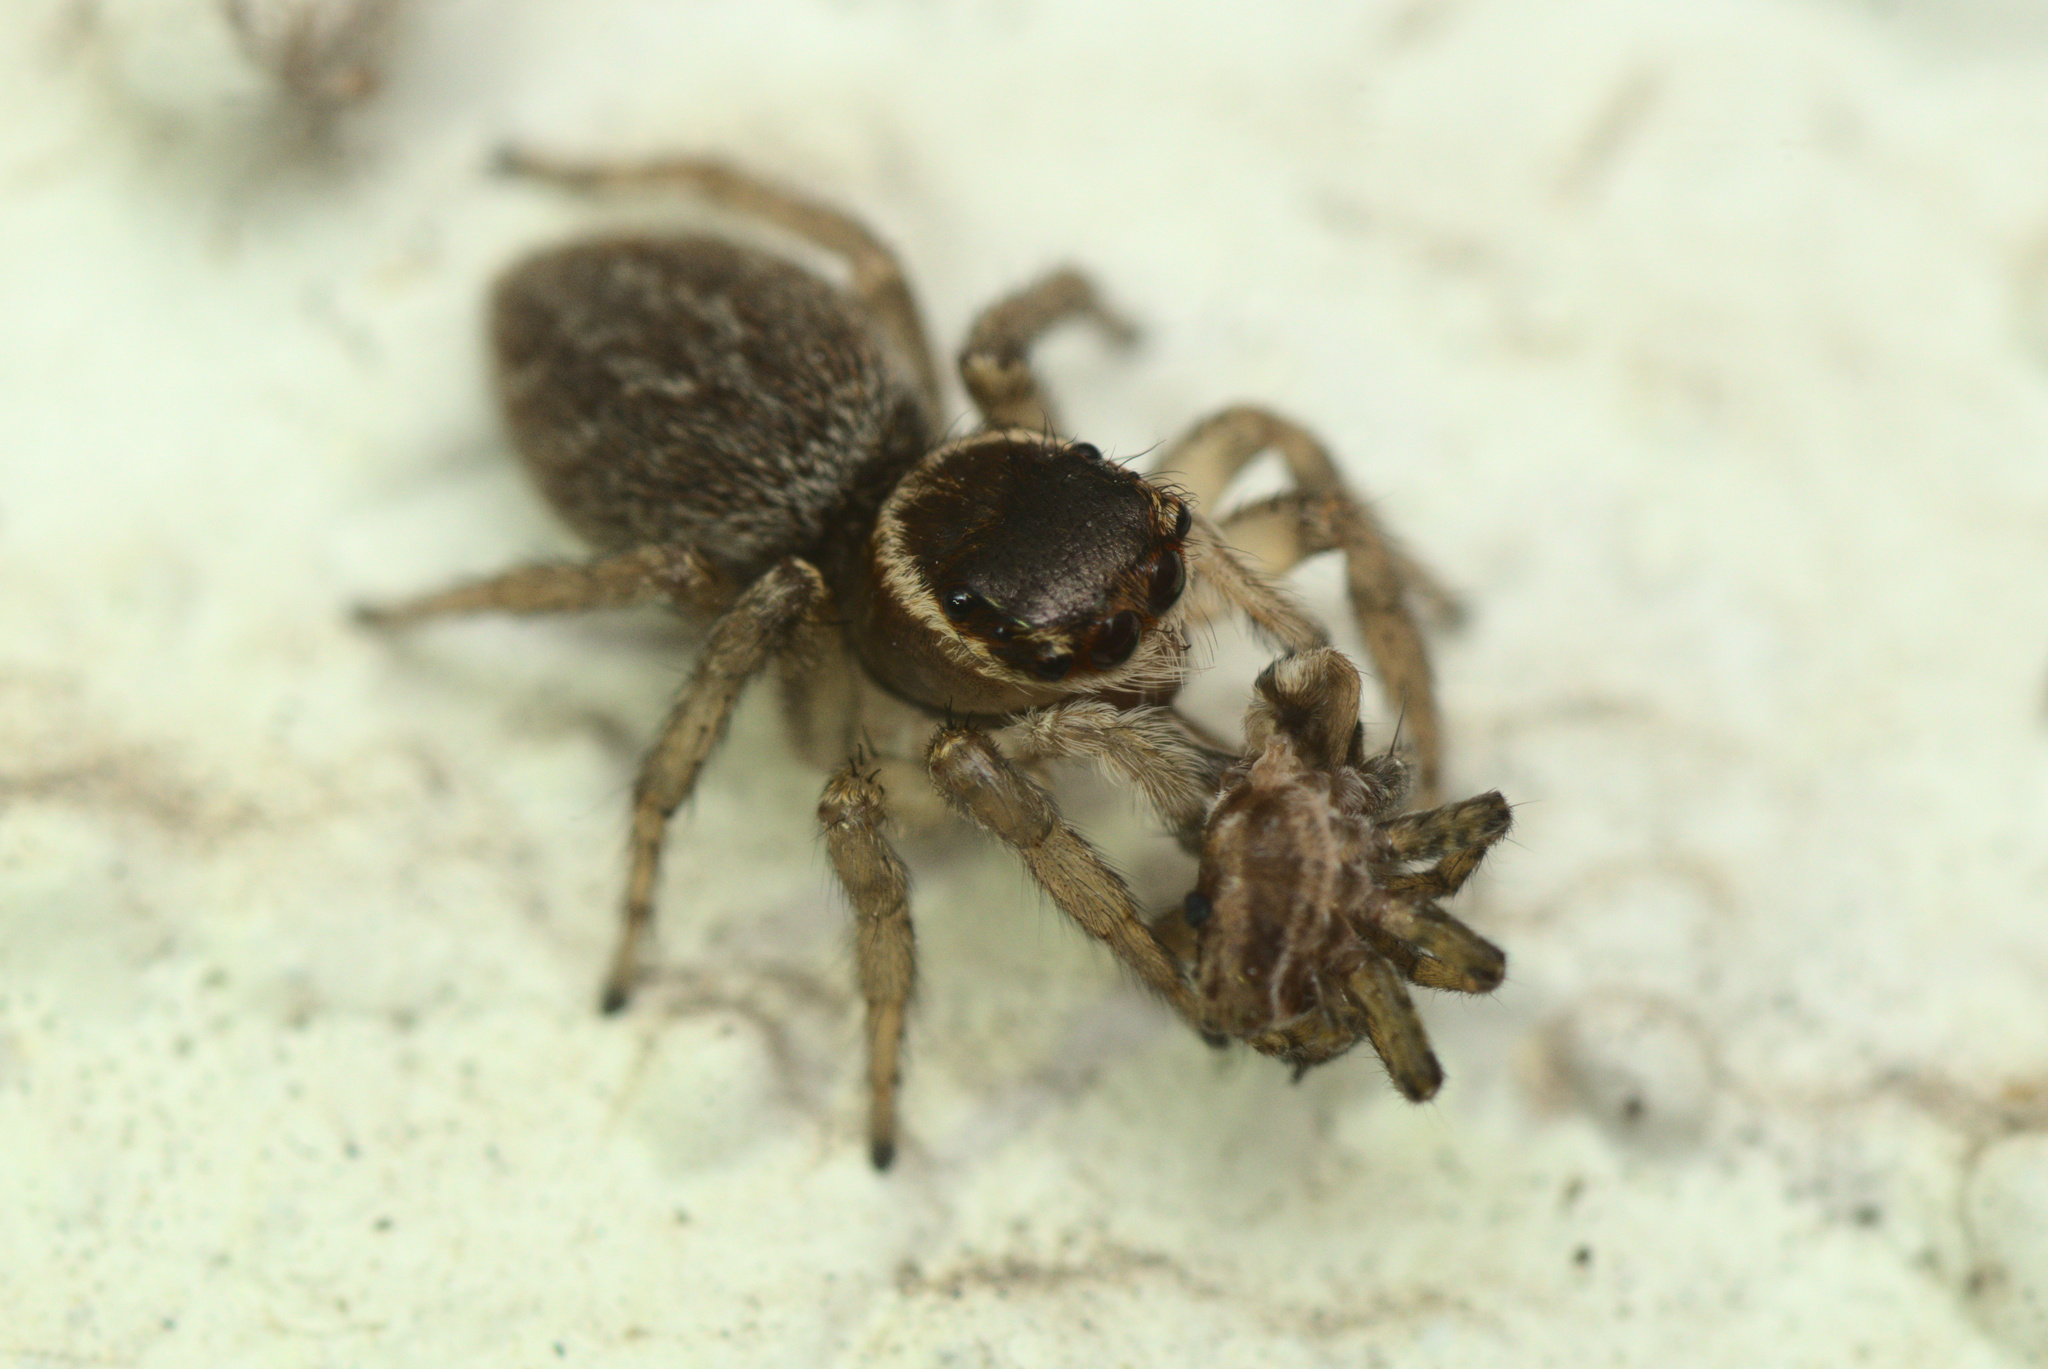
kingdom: Animalia
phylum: Arthropoda
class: Arachnida
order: Araneae
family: Salticidae
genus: Maratus
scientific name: Maratus griseus
